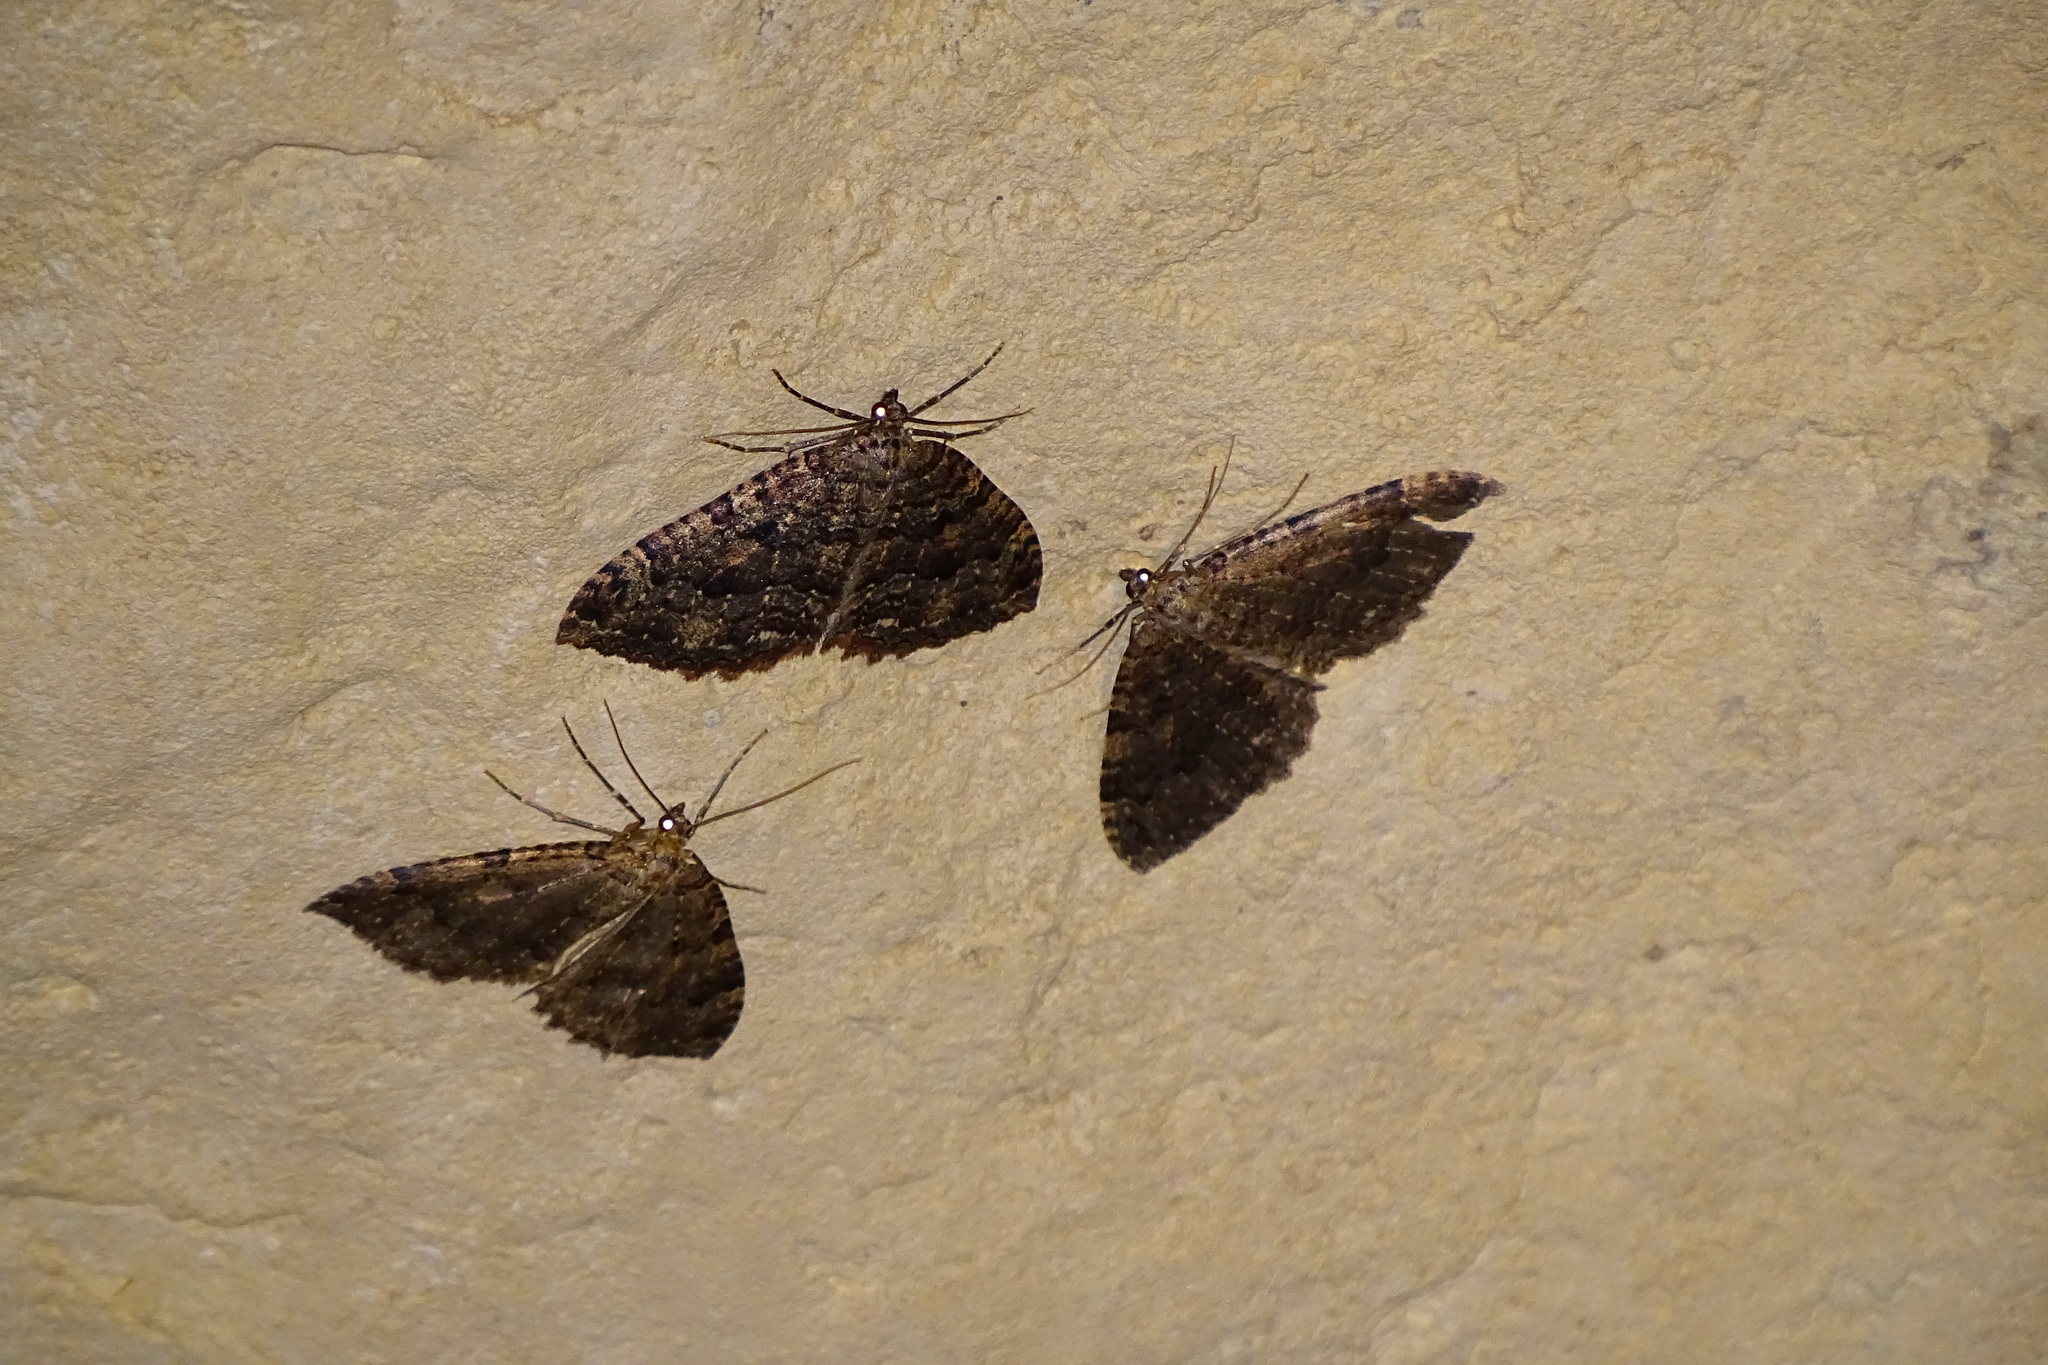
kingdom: Animalia
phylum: Arthropoda
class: Insecta
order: Lepidoptera
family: Geometridae
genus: Triphosa
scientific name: Triphosa dubitata
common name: Tissue
